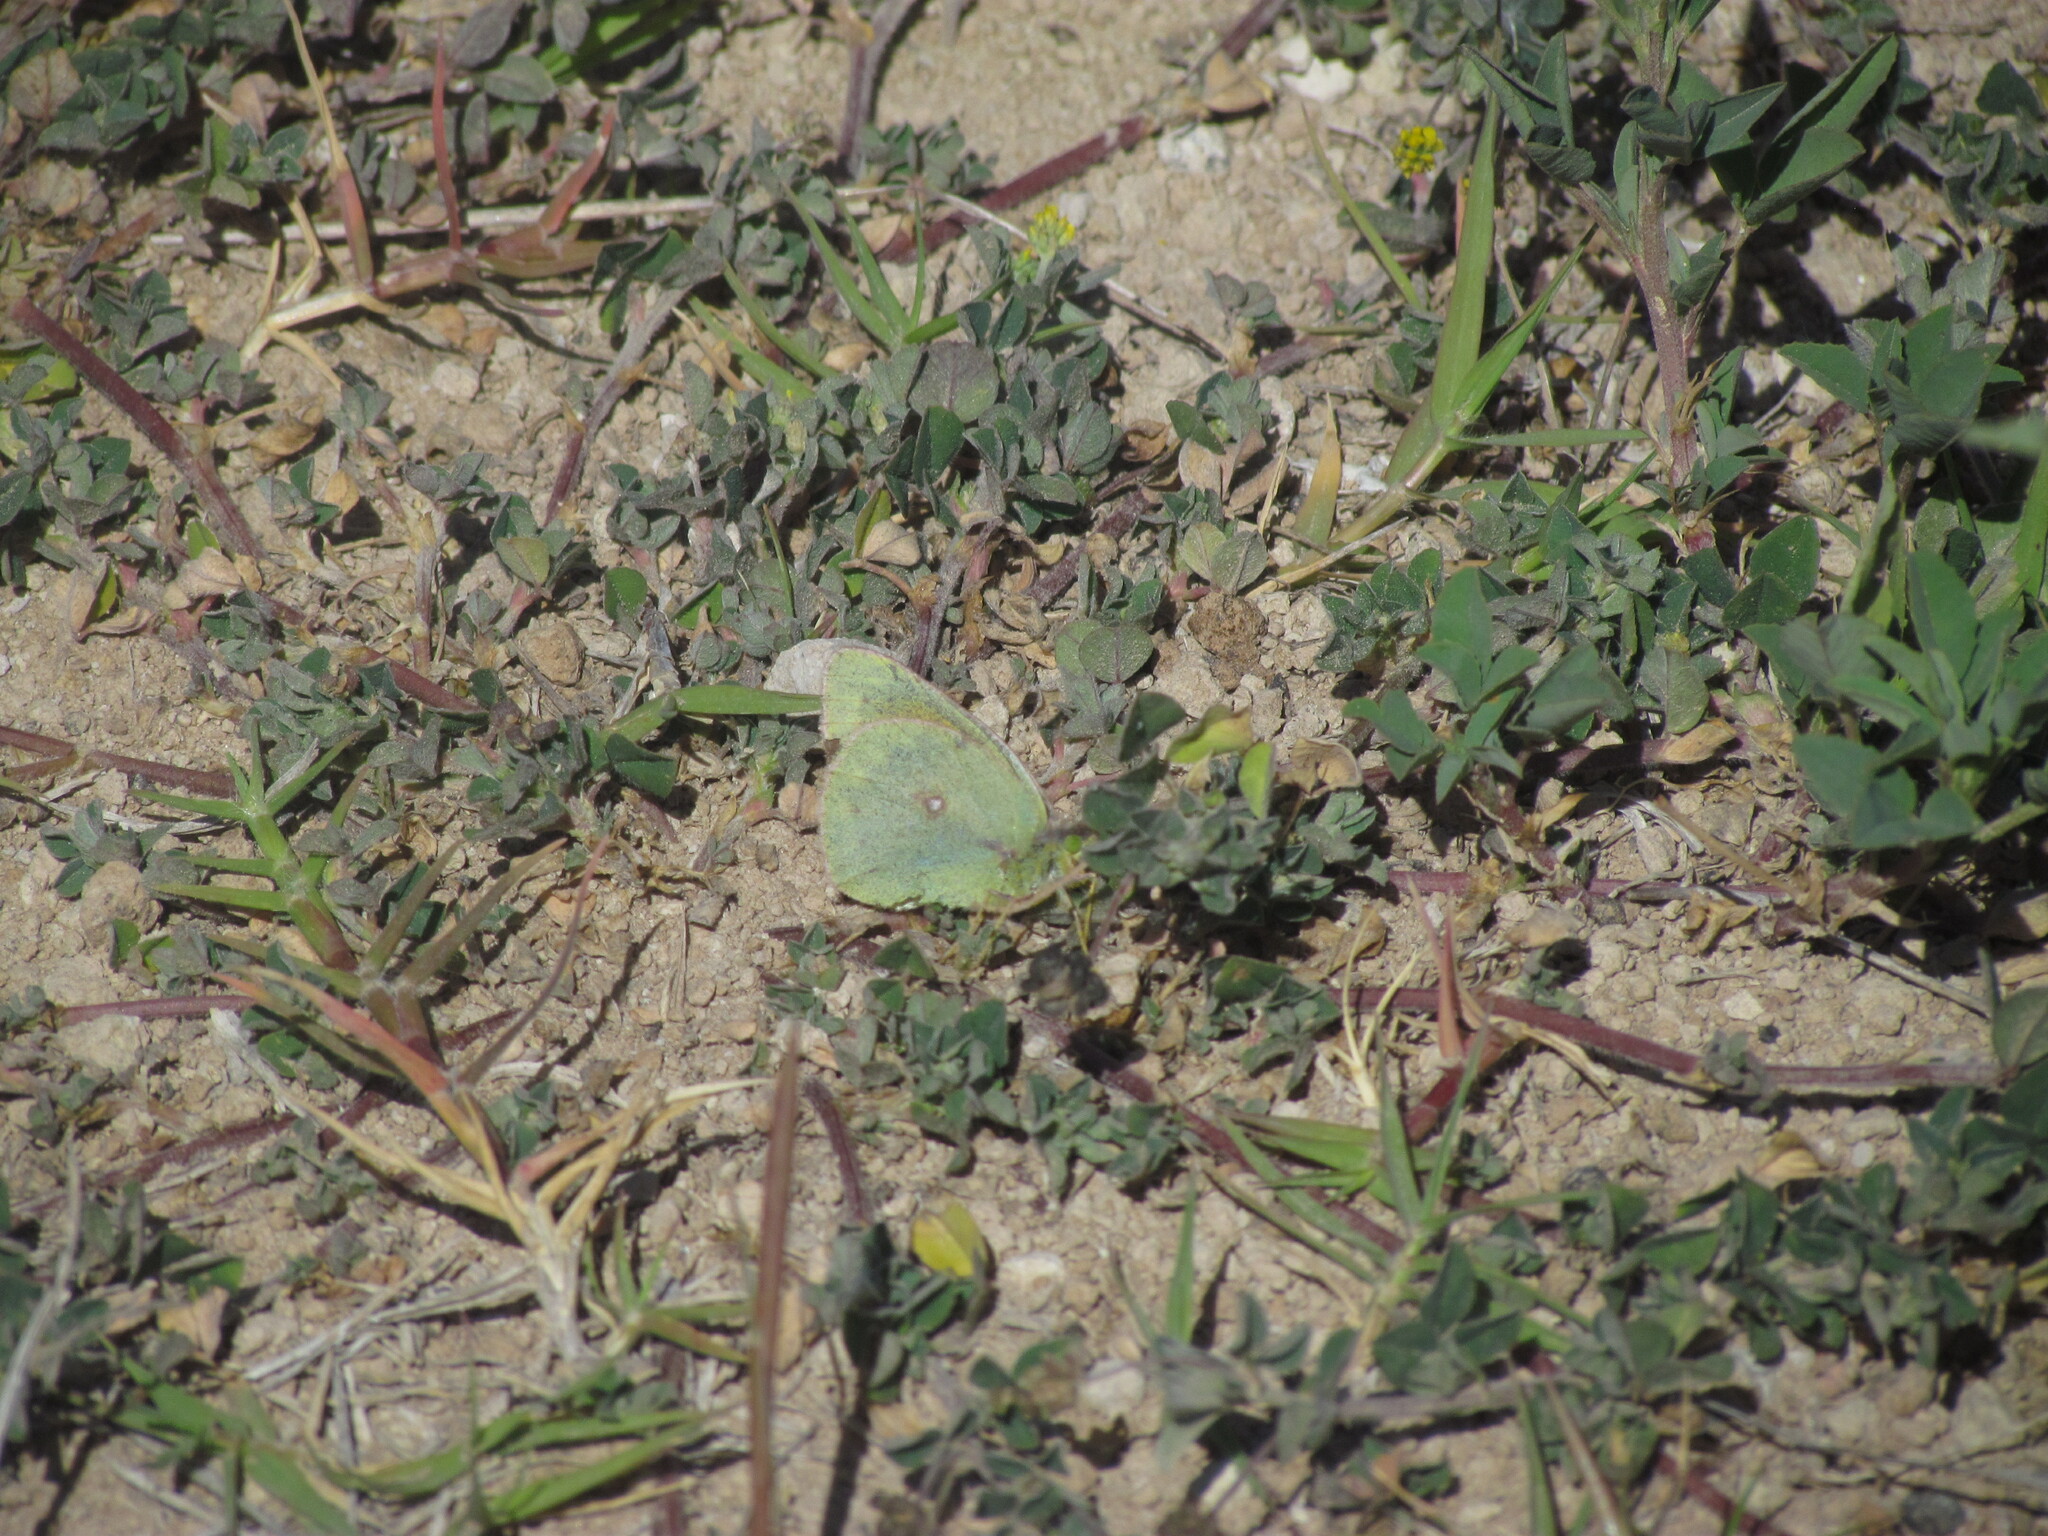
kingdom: Animalia
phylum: Arthropoda
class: Insecta
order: Lepidoptera
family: Pieridae
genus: Colias
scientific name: Colias lesbia
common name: Lesbia clouded yellow
